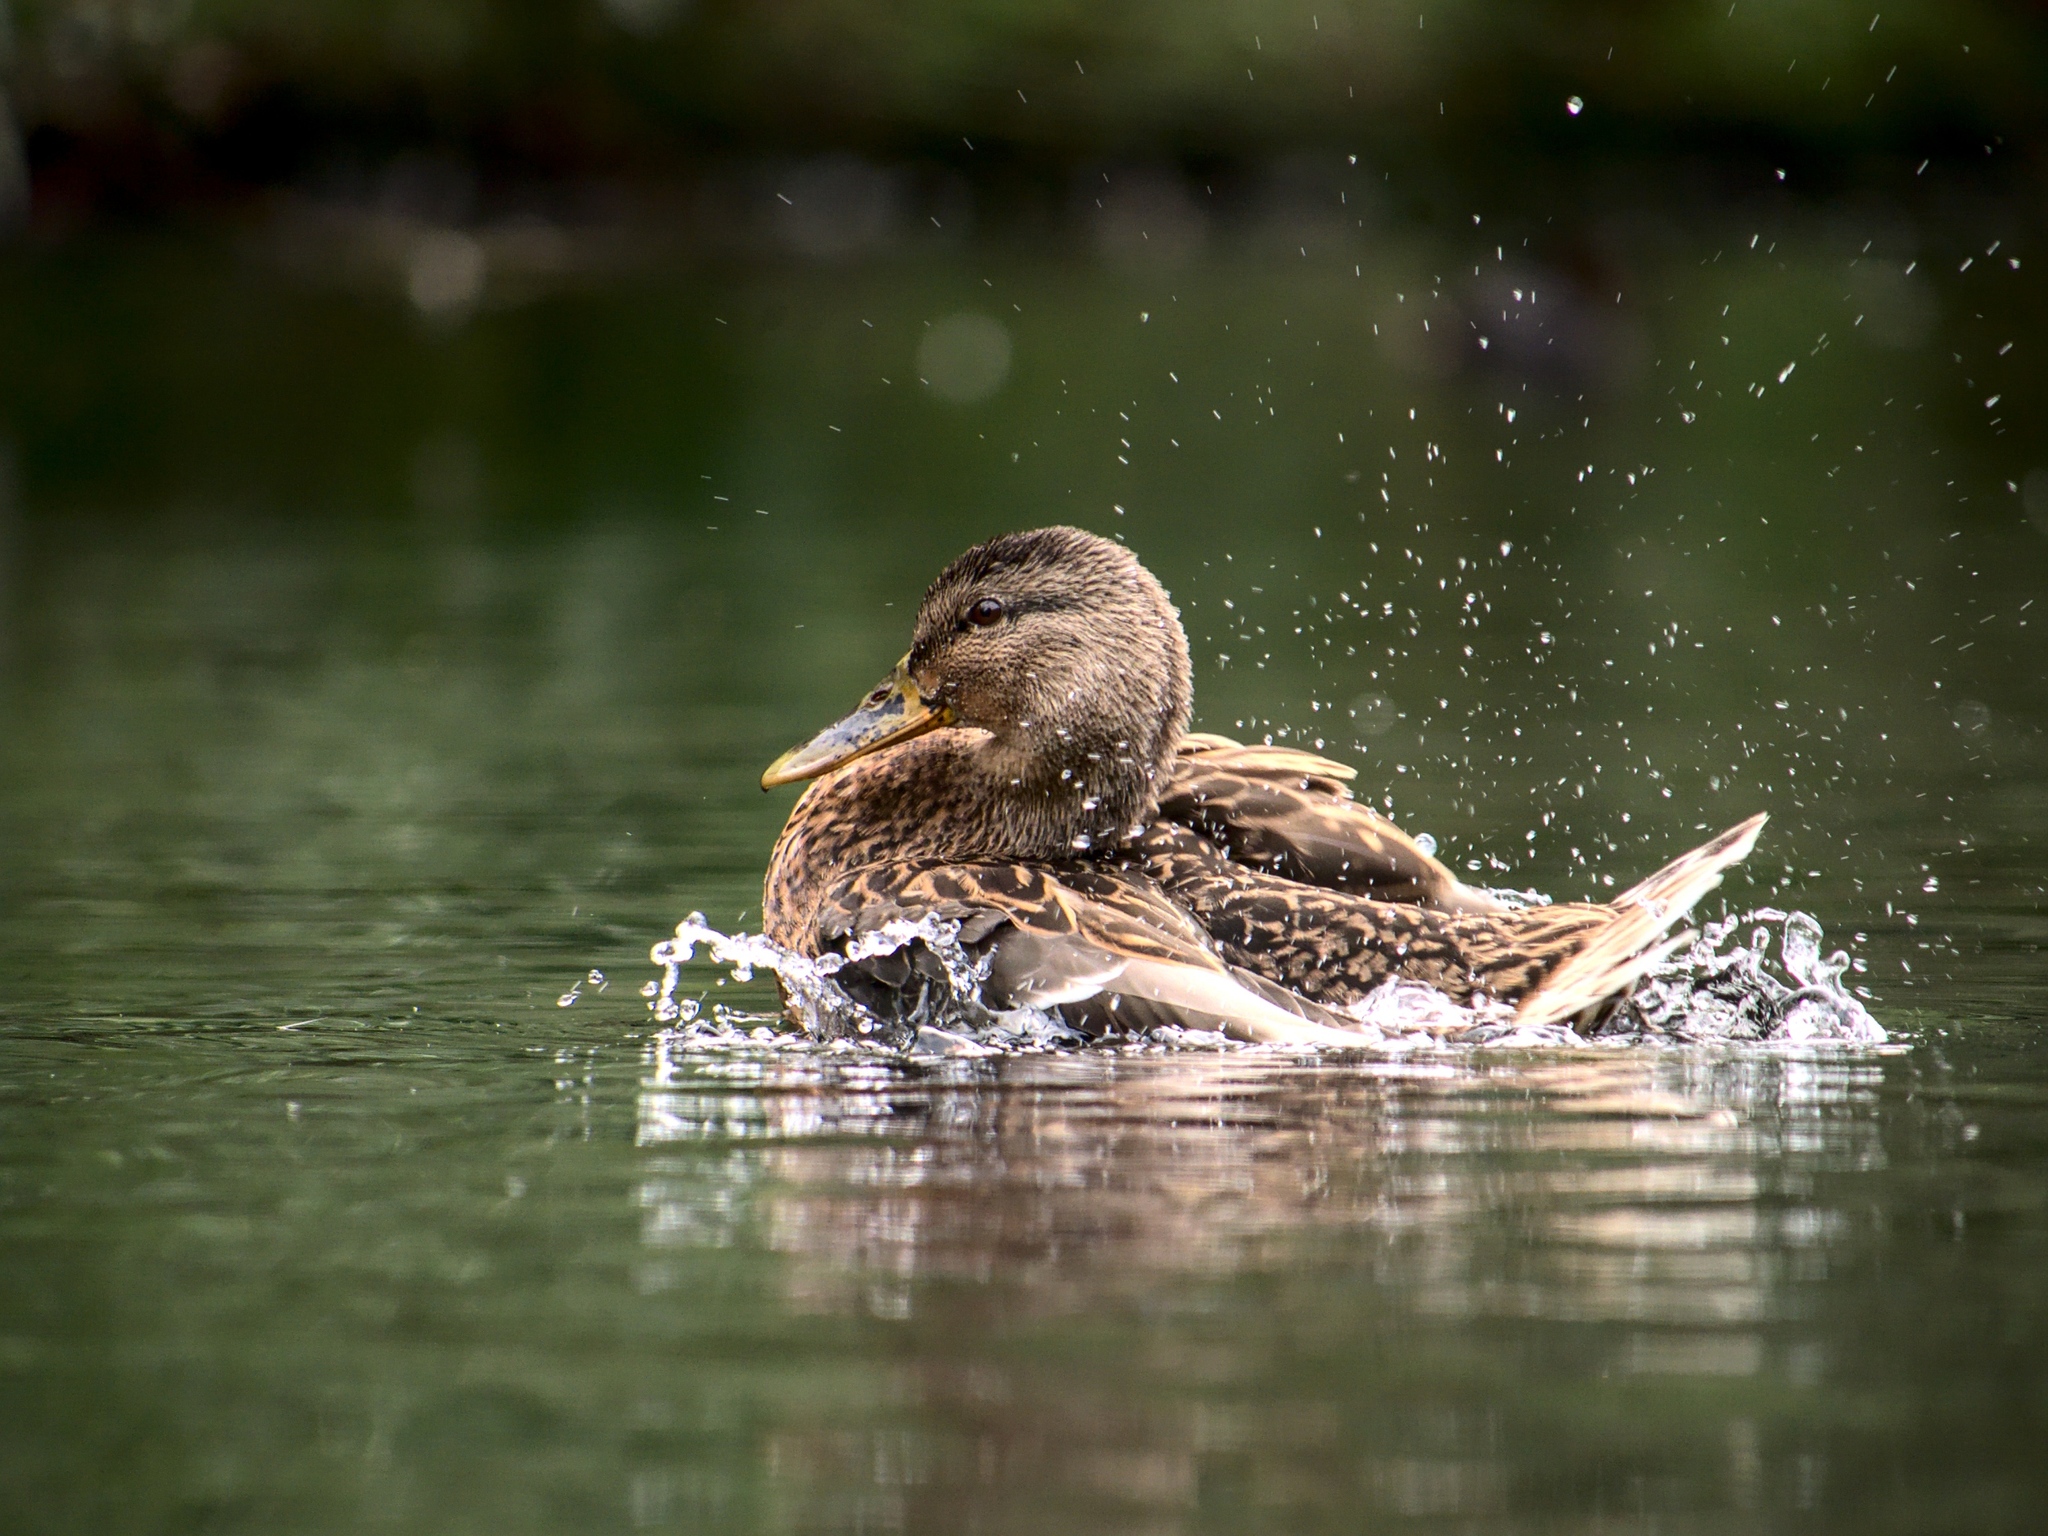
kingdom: Animalia
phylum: Chordata
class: Aves
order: Anseriformes
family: Anatidae
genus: Anas
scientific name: Anas platyrhynchos
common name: Mallard
